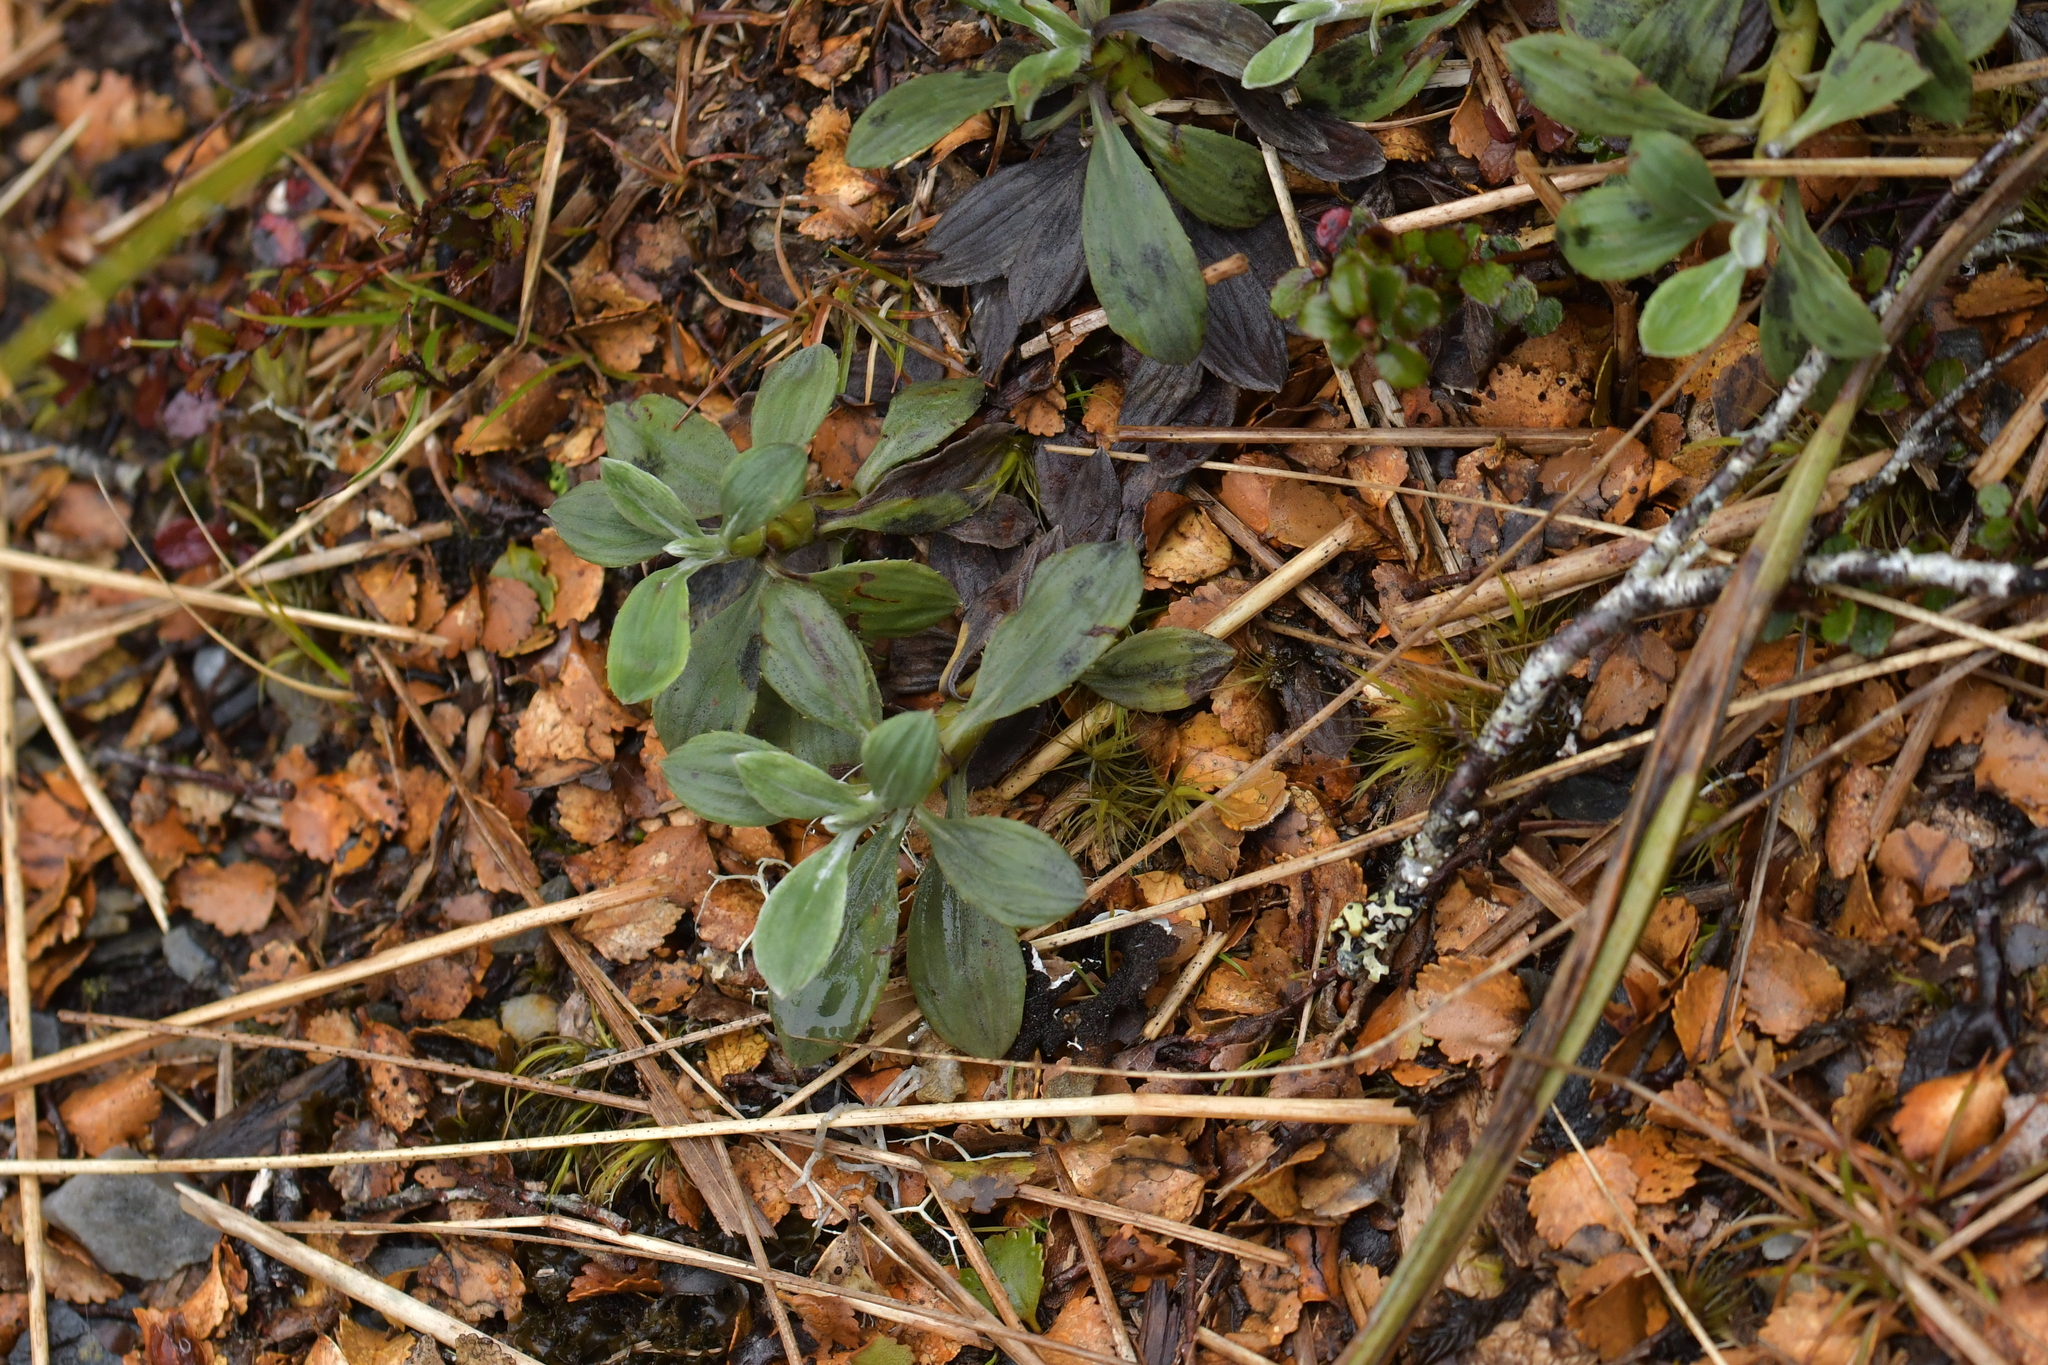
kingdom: Plantae
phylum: Tracheophyta
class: Magnoliopsida
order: Asterales
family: Asteraceae
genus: Celmisia
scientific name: Celmisia discolor
